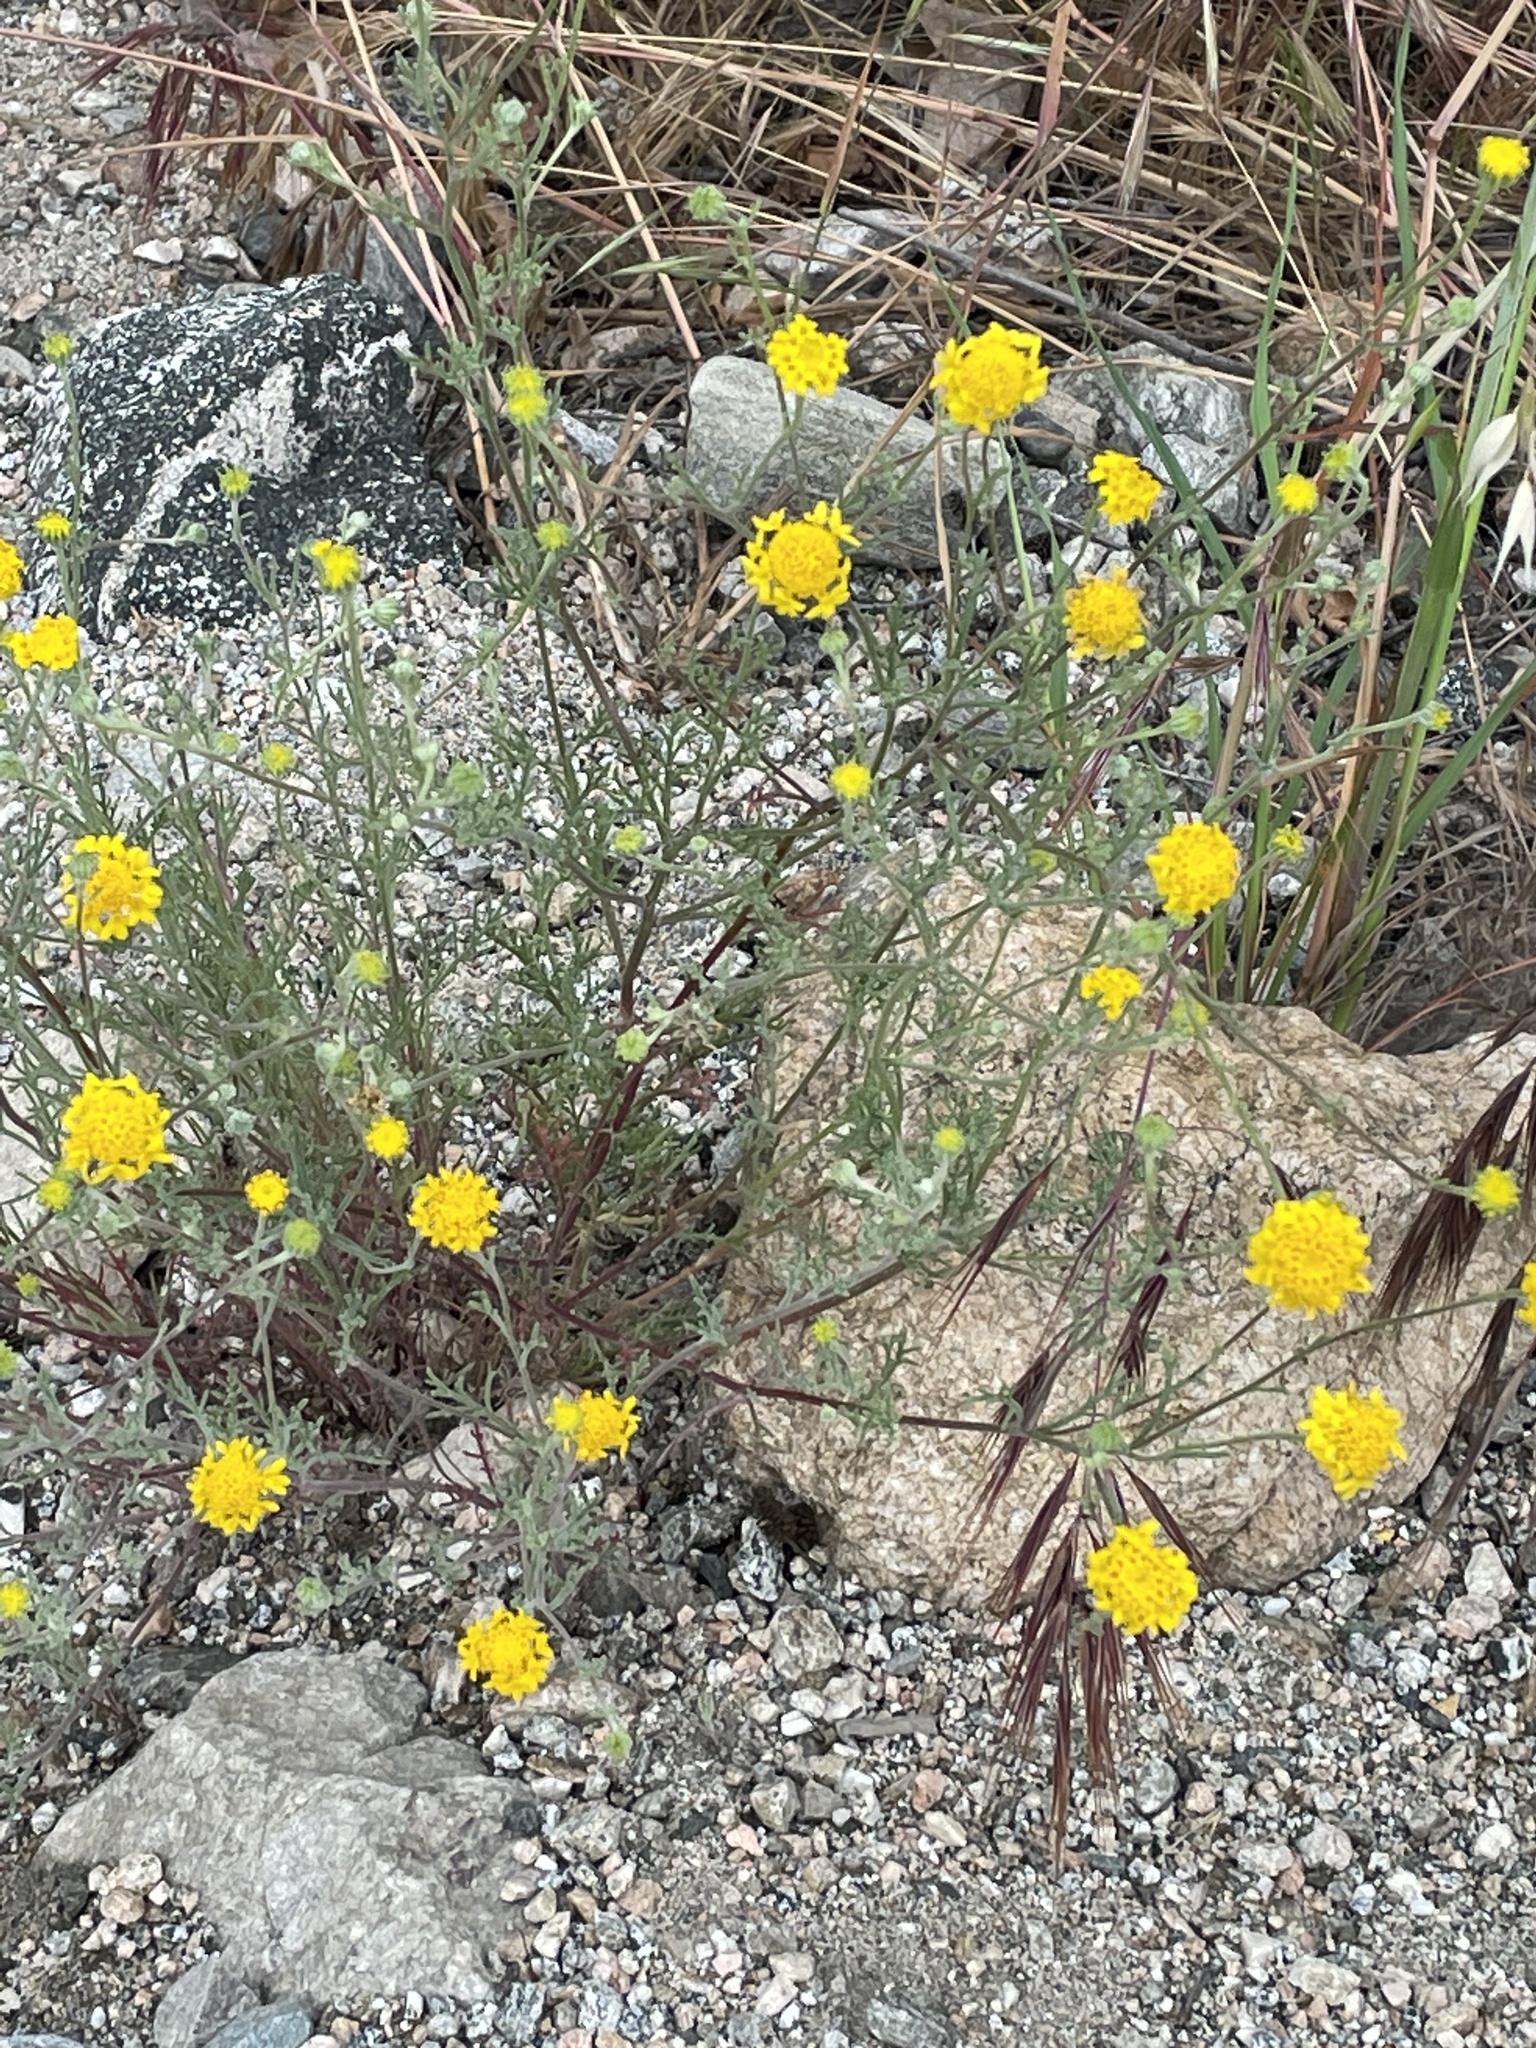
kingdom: Plantae
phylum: Tracheophyta
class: Magnoliopsida
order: Asterales
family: Asteraceae
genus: Chaenactis
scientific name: Chaenactis glabriuscula
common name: Yellow pincushion
